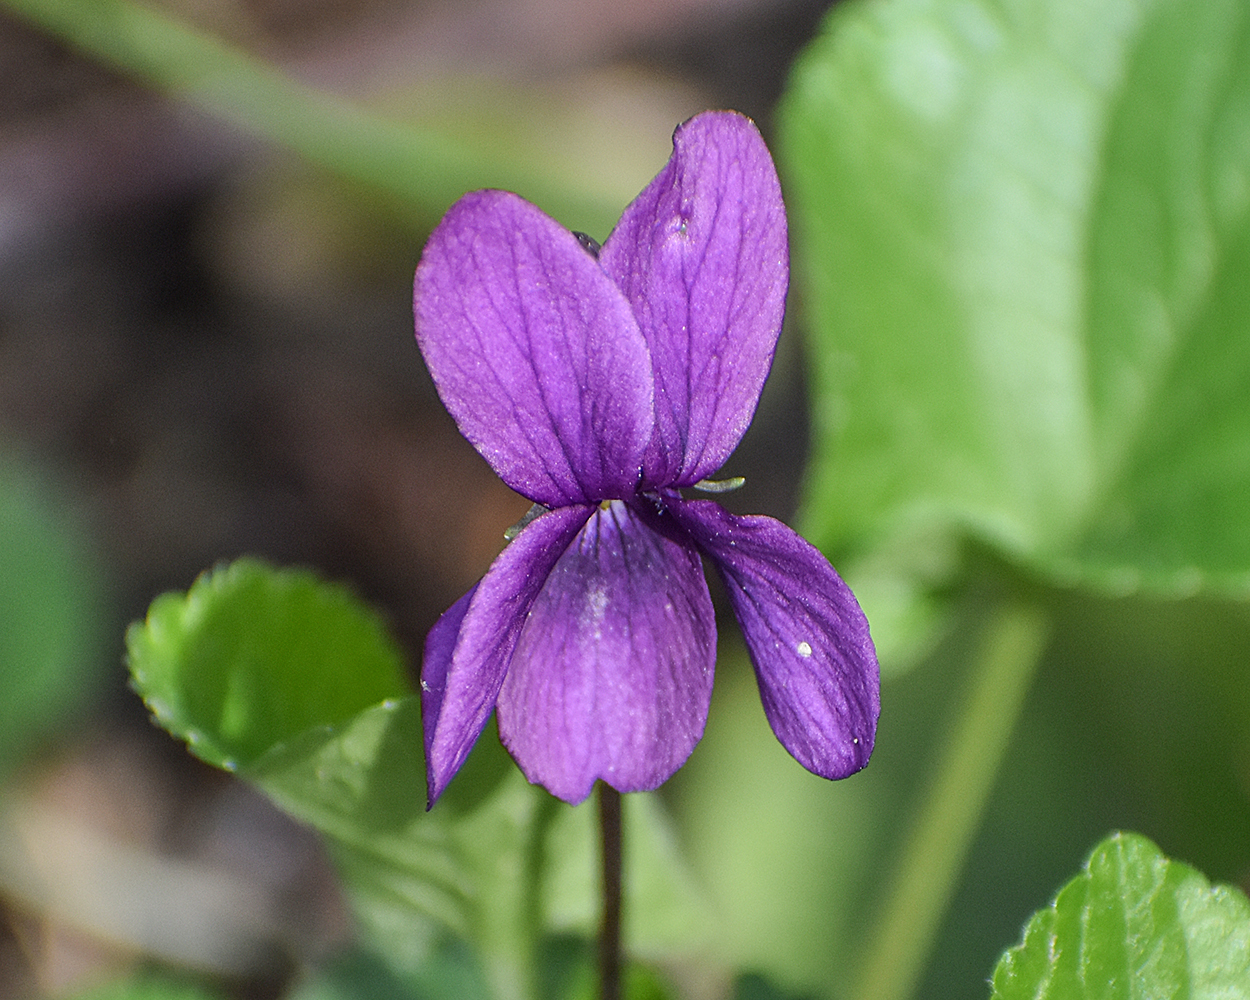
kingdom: Plantae
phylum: Tracheophyta
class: Magnoliopsida
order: Malpighiales
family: Violaceae
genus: Viola
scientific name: Viola odorata
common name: Sweet violet
